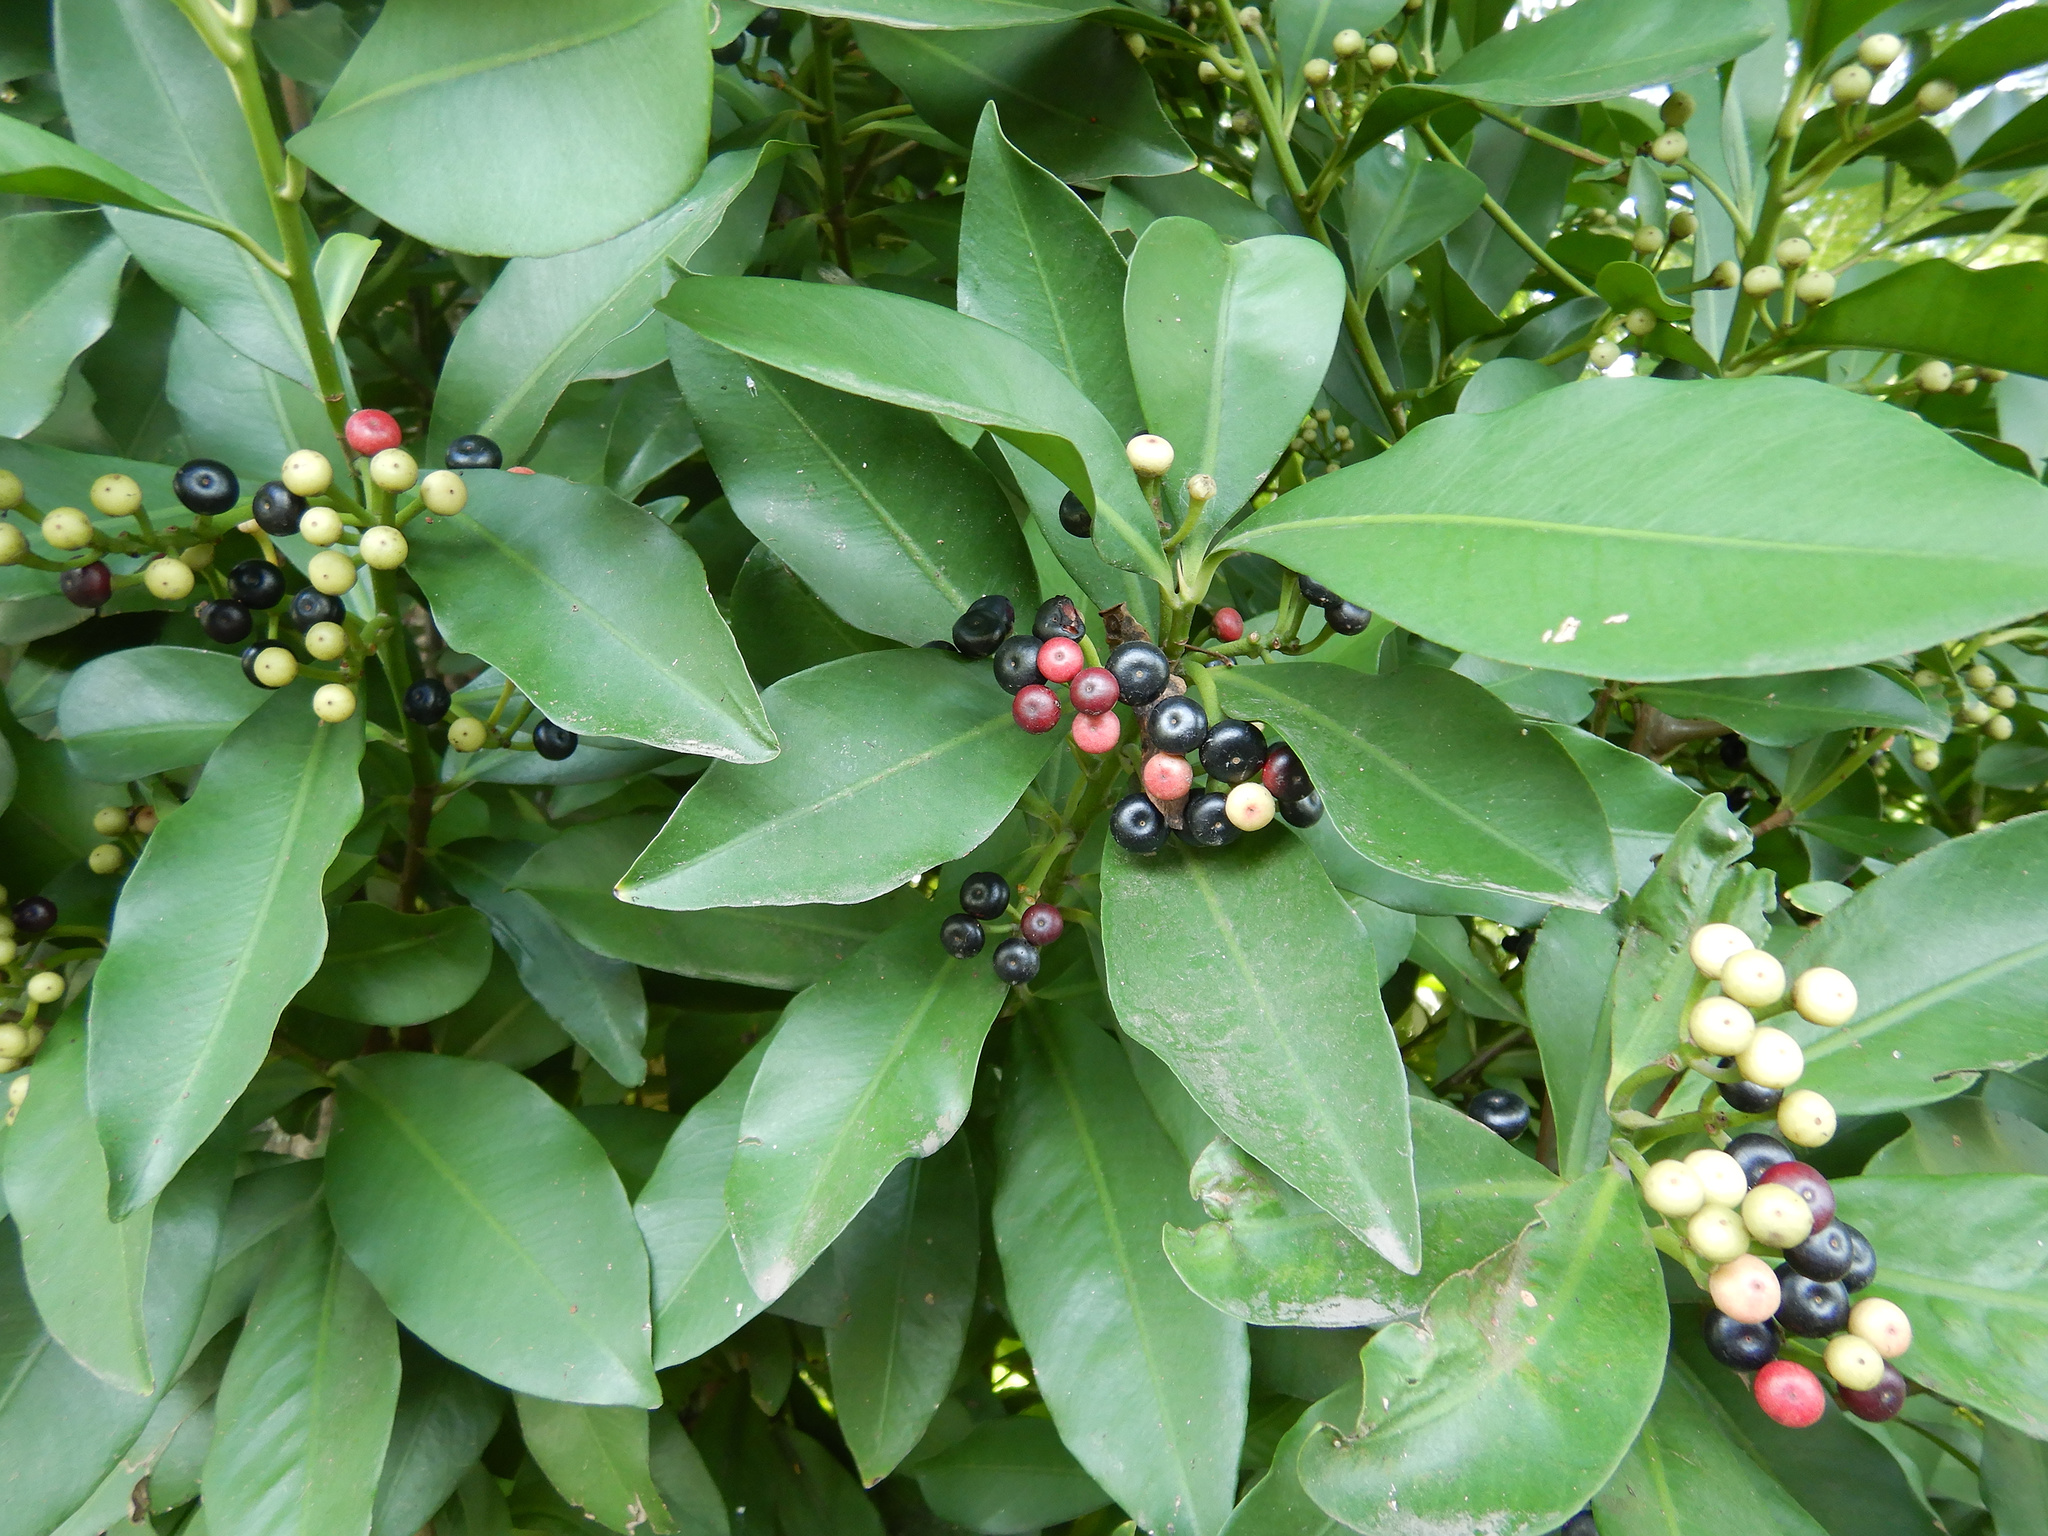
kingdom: Plantae
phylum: Tracheophyta
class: Magnoliopsida
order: Ericales
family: Primulaceae
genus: Ardisia
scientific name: Ardisia elliptica
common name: Shoebutton
